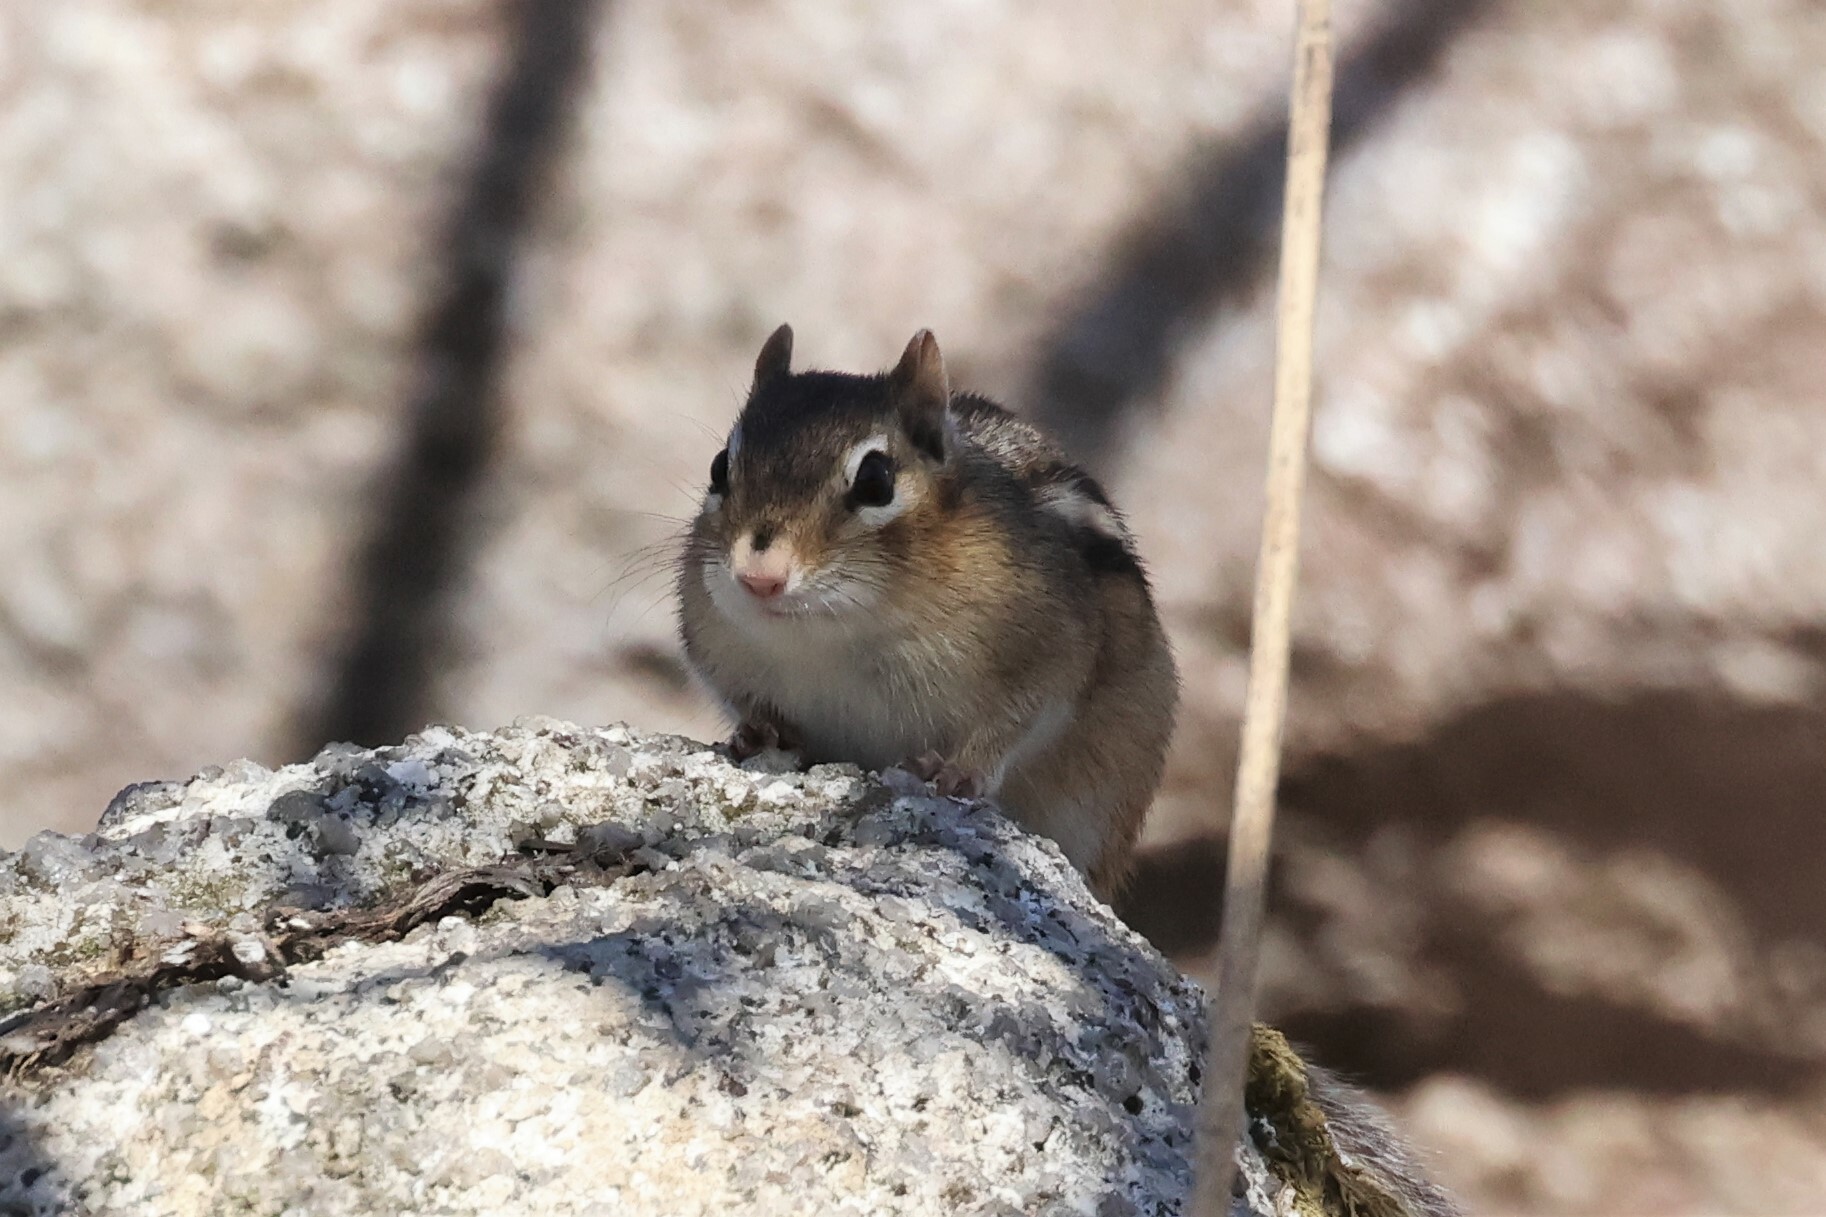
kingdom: Animalia
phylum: Chordata
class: Mammalia
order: Rodentia
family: Sciuridae
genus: Tamias
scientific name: Tamias striatus
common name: Eastern chipmunk
